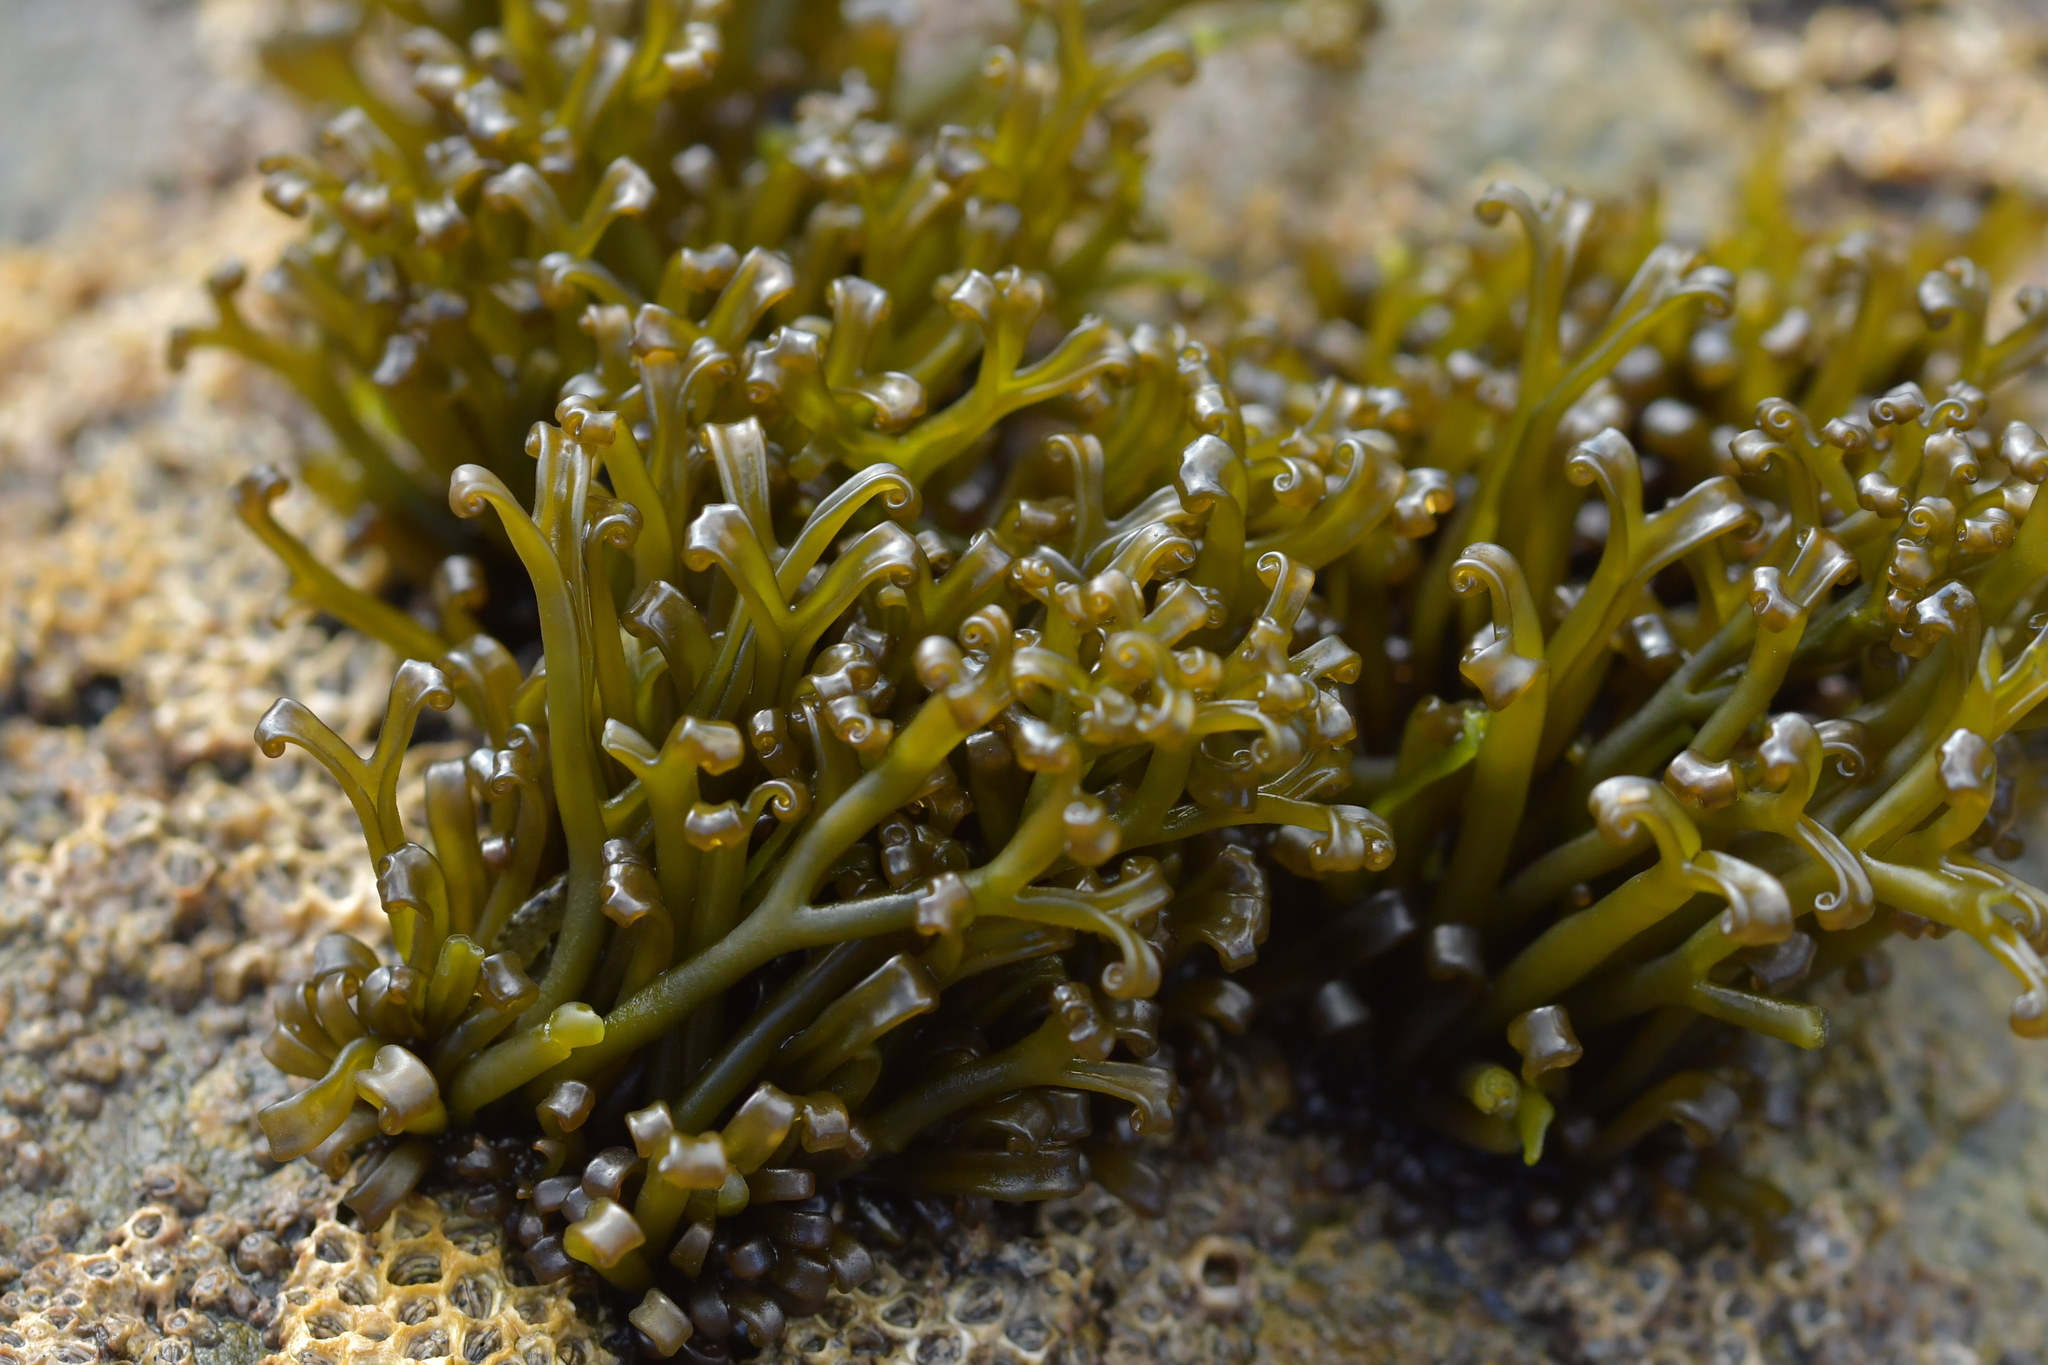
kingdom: Plantae
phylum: Rhodophyta
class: Florideophyceae
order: Gigartinales
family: Gigartinaceae
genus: Psilophycus
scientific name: Psilophycus alveatus
